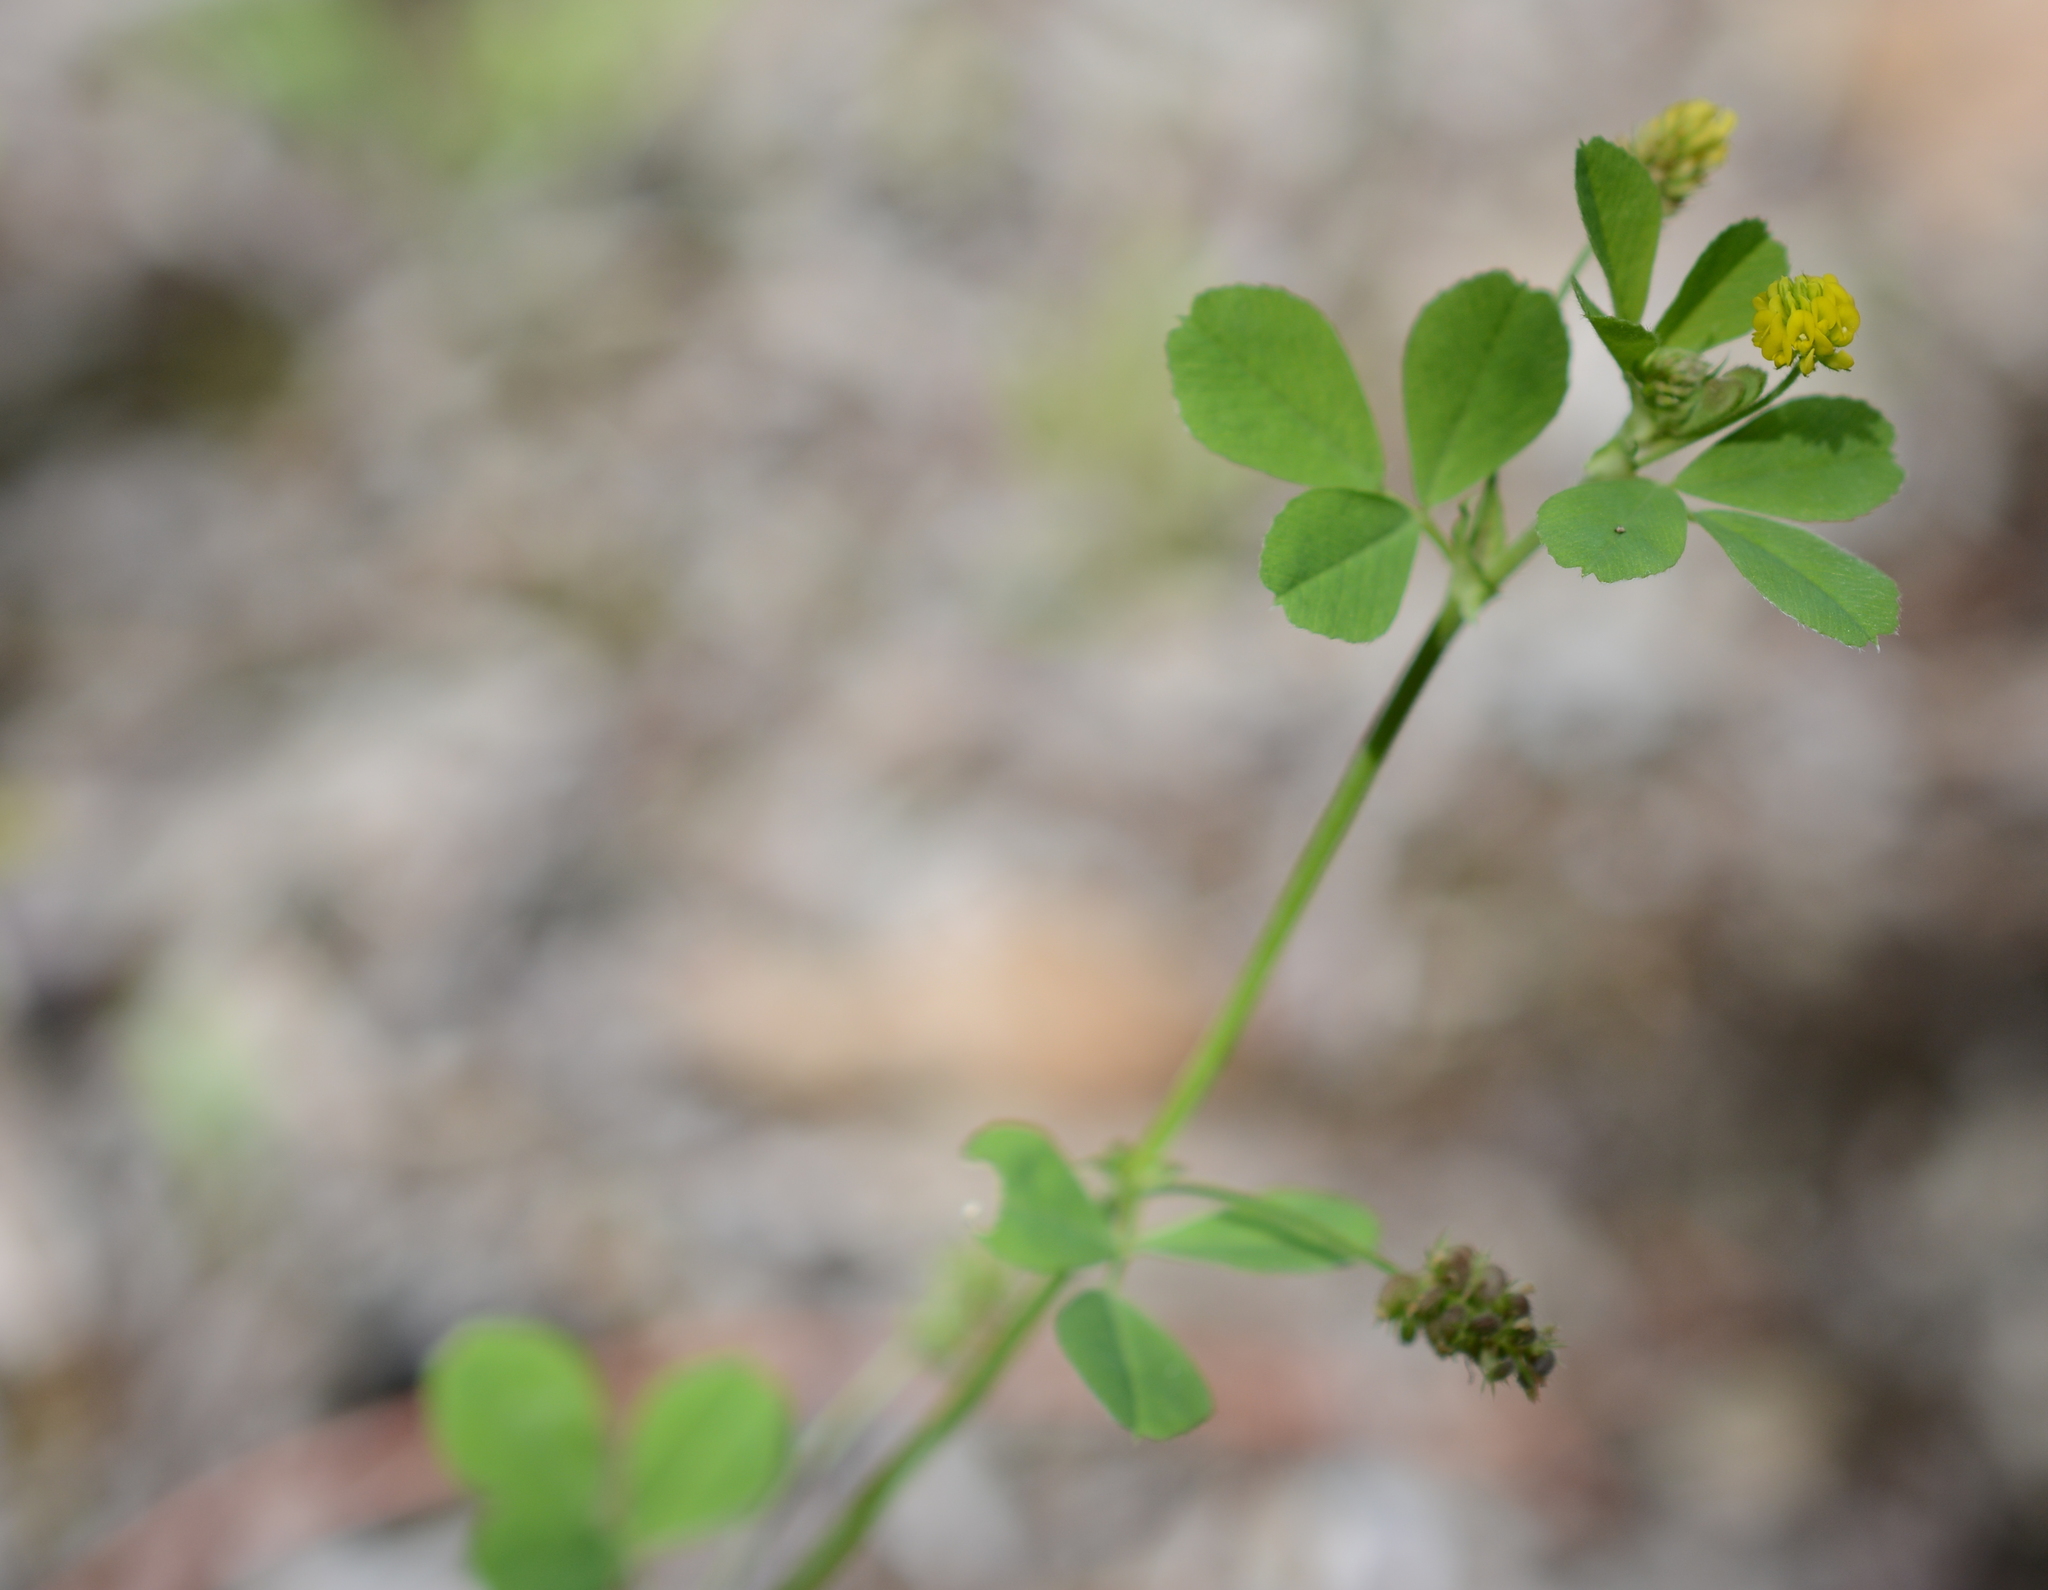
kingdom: Plantae
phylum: Tracheophyta
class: Magnoliopsida
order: Fabales
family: Fabaceae
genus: Medicago
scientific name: Medicago lupulina
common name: Black medick
